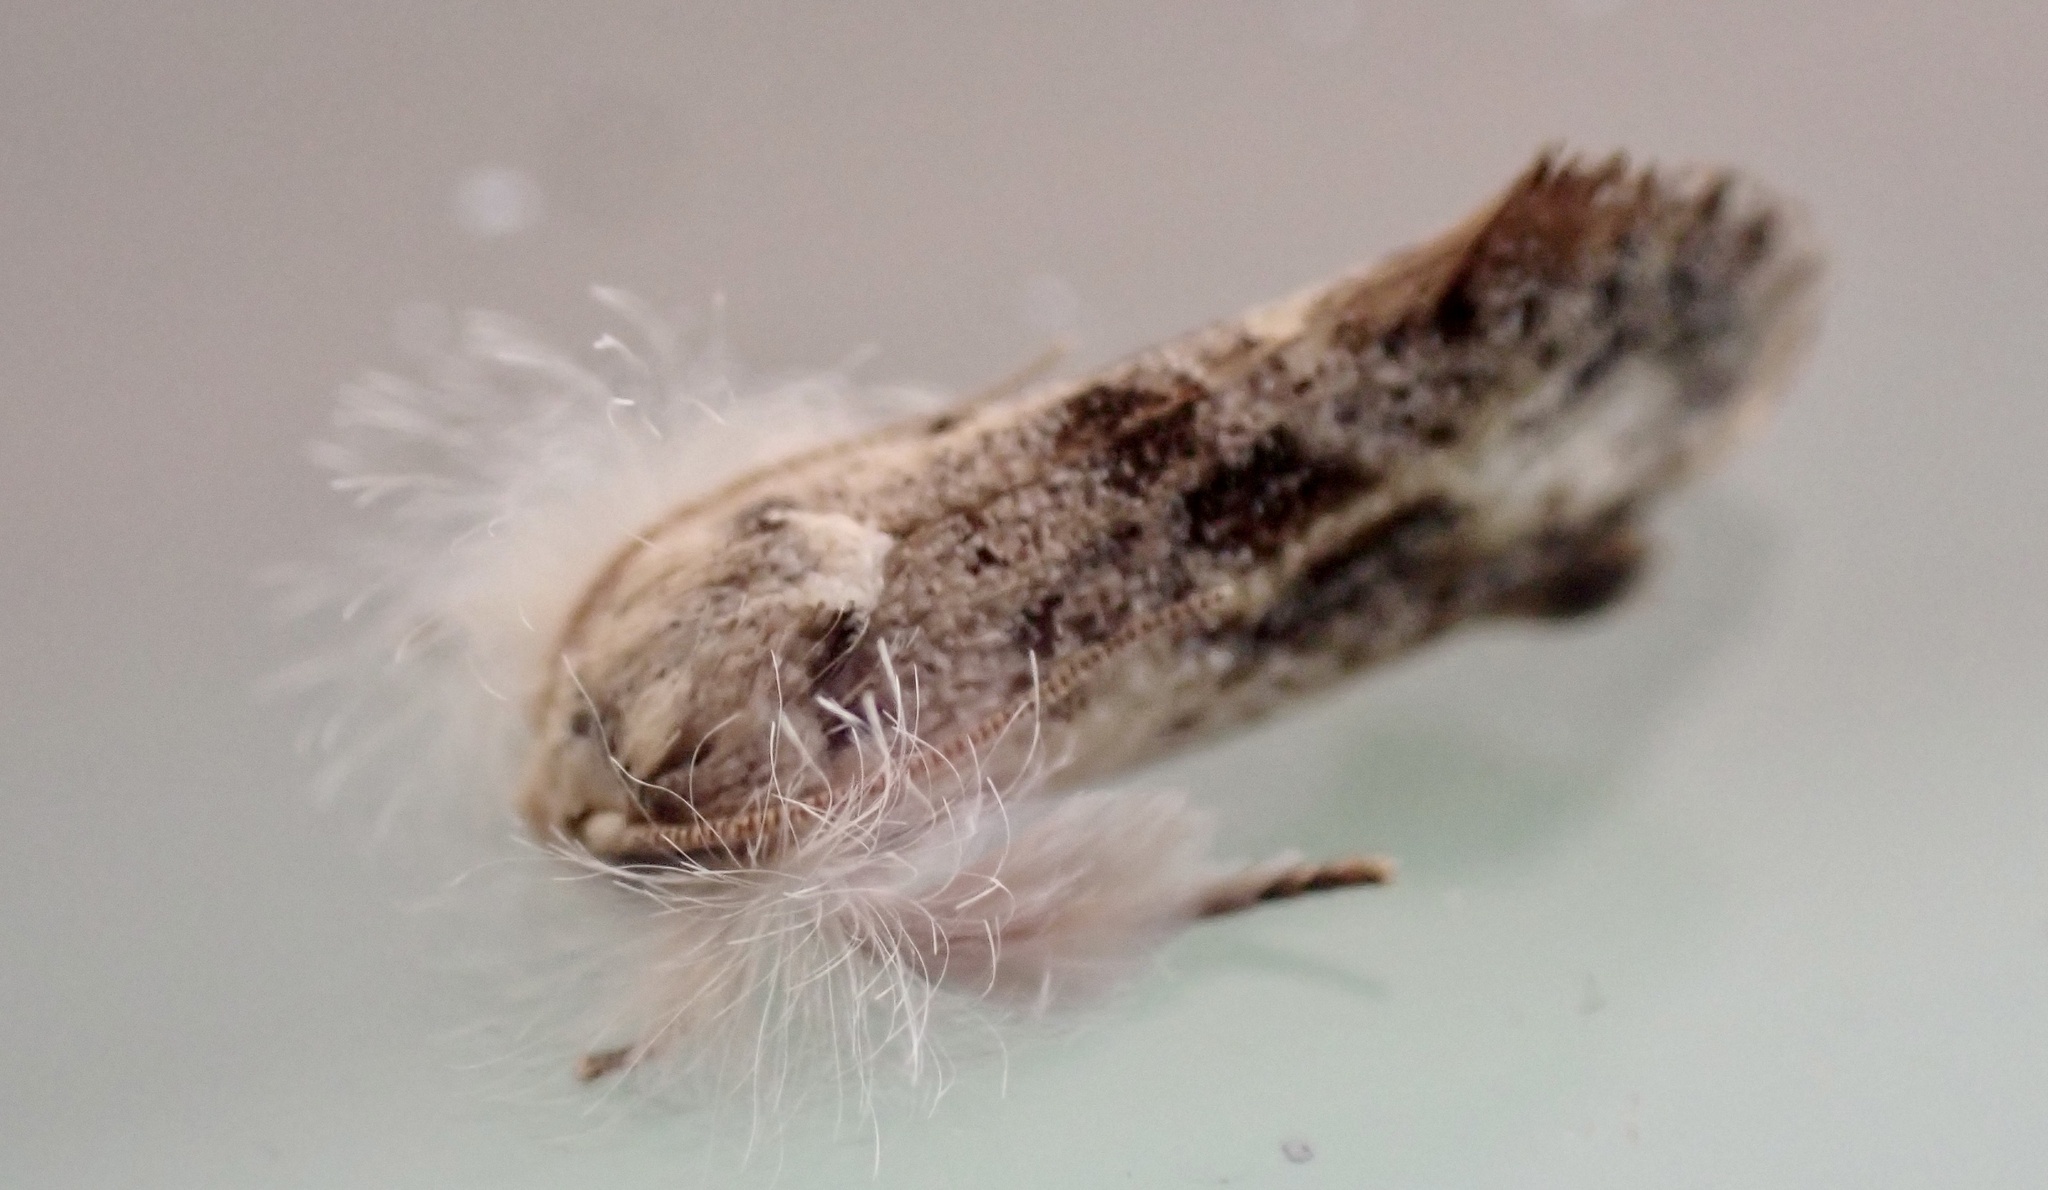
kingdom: Animalia
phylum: Arthropoda
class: Insecta
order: Lepidoptera
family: Tineidae
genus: Acrolophus
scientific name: Acrolophus mycetophagus
